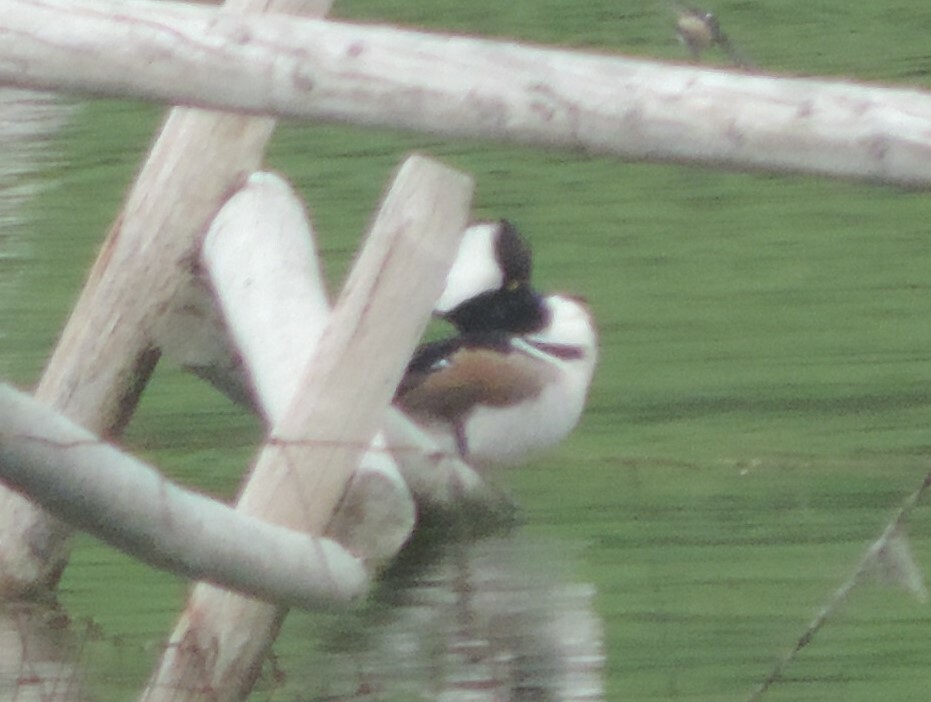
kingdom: Animalia
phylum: Chordata
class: Aves
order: Anseriformes
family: Anatidae
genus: Lophodytes
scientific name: Lophodytes cucullatus
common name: Hooded merganser
